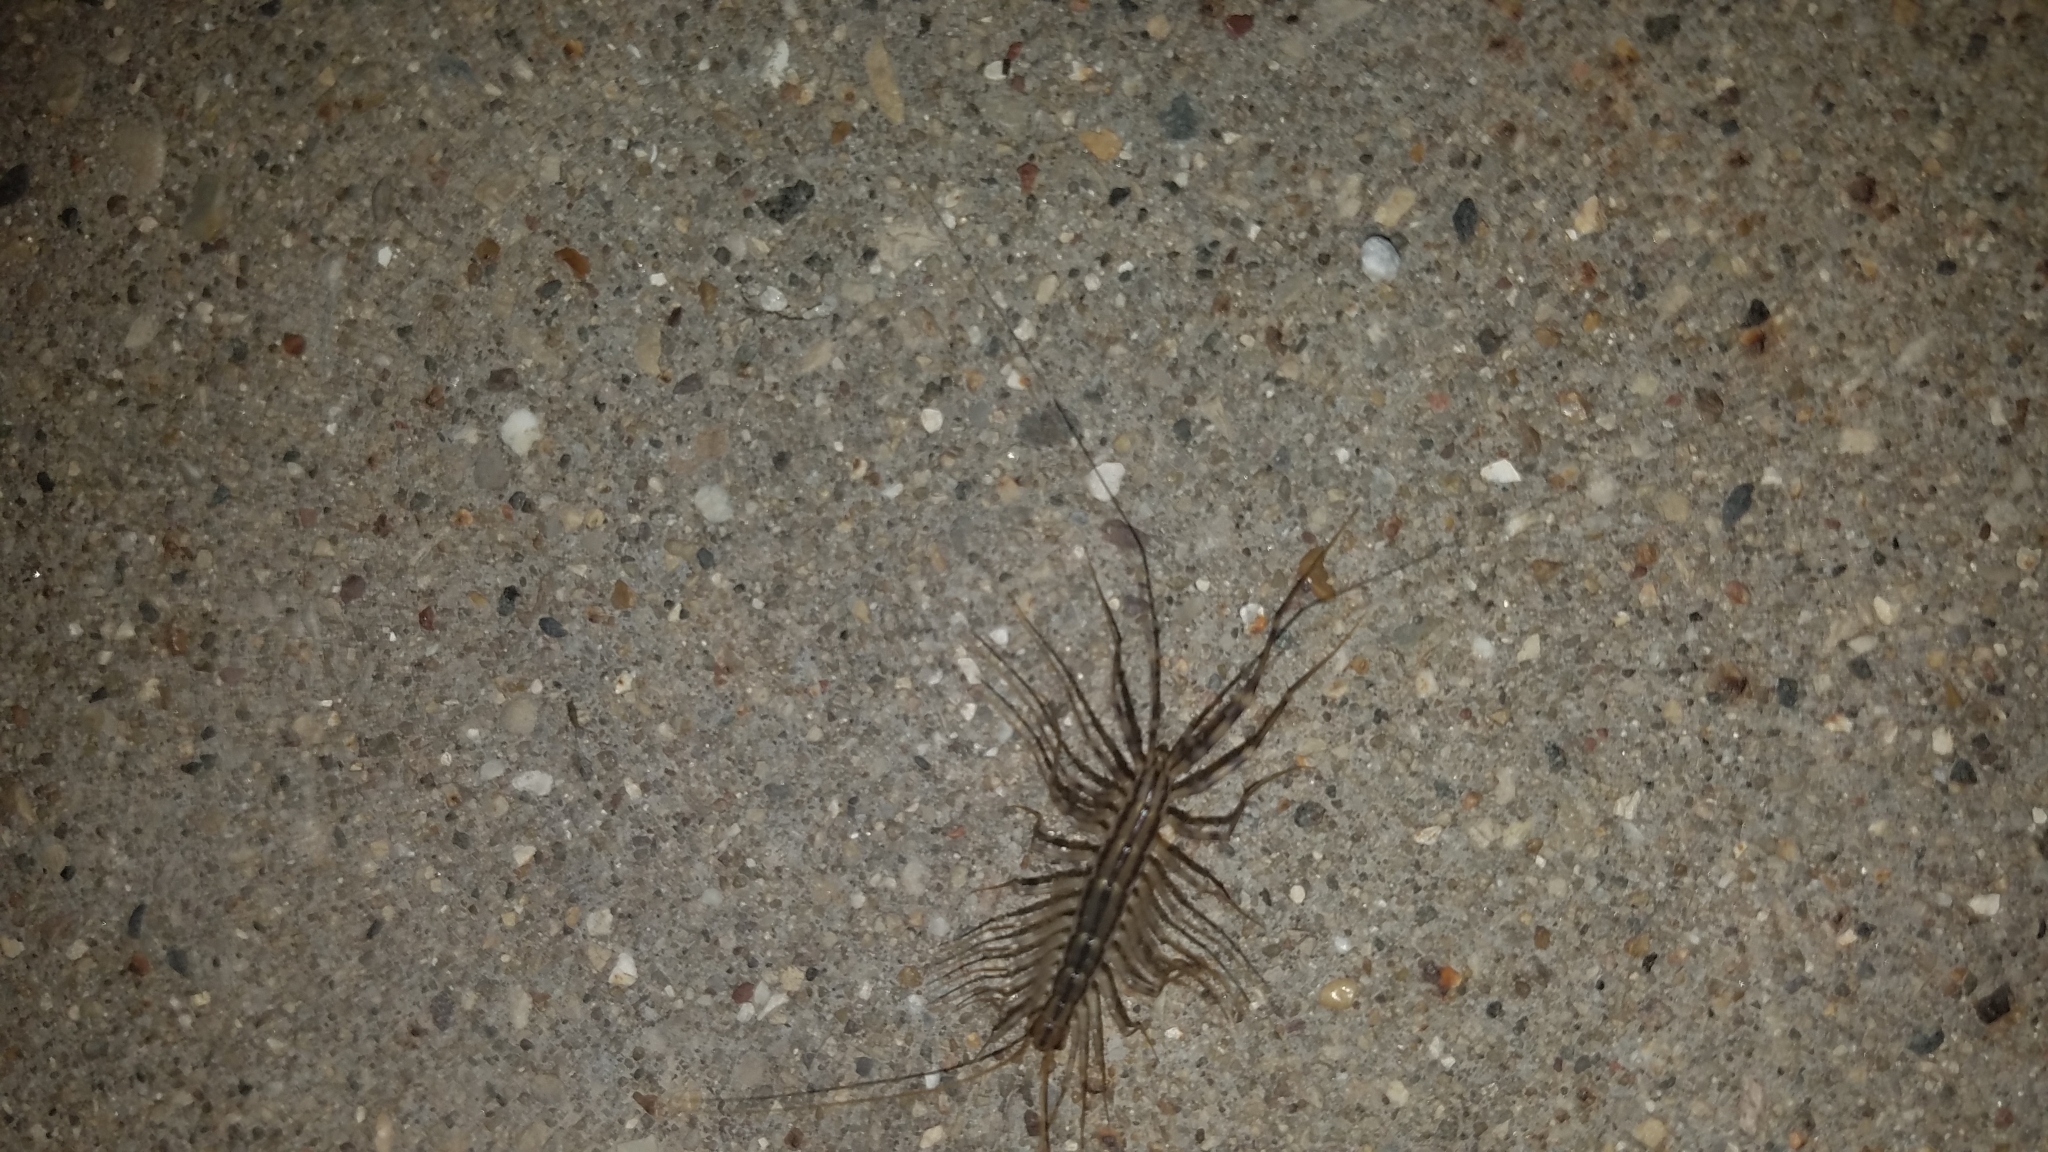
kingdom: Animalia
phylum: Arthropoda
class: Chilopoda
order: Scutigeromorpha
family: Scutigeridae
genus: Scutigera
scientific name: Scutigera coleoptrata
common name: House centipede
